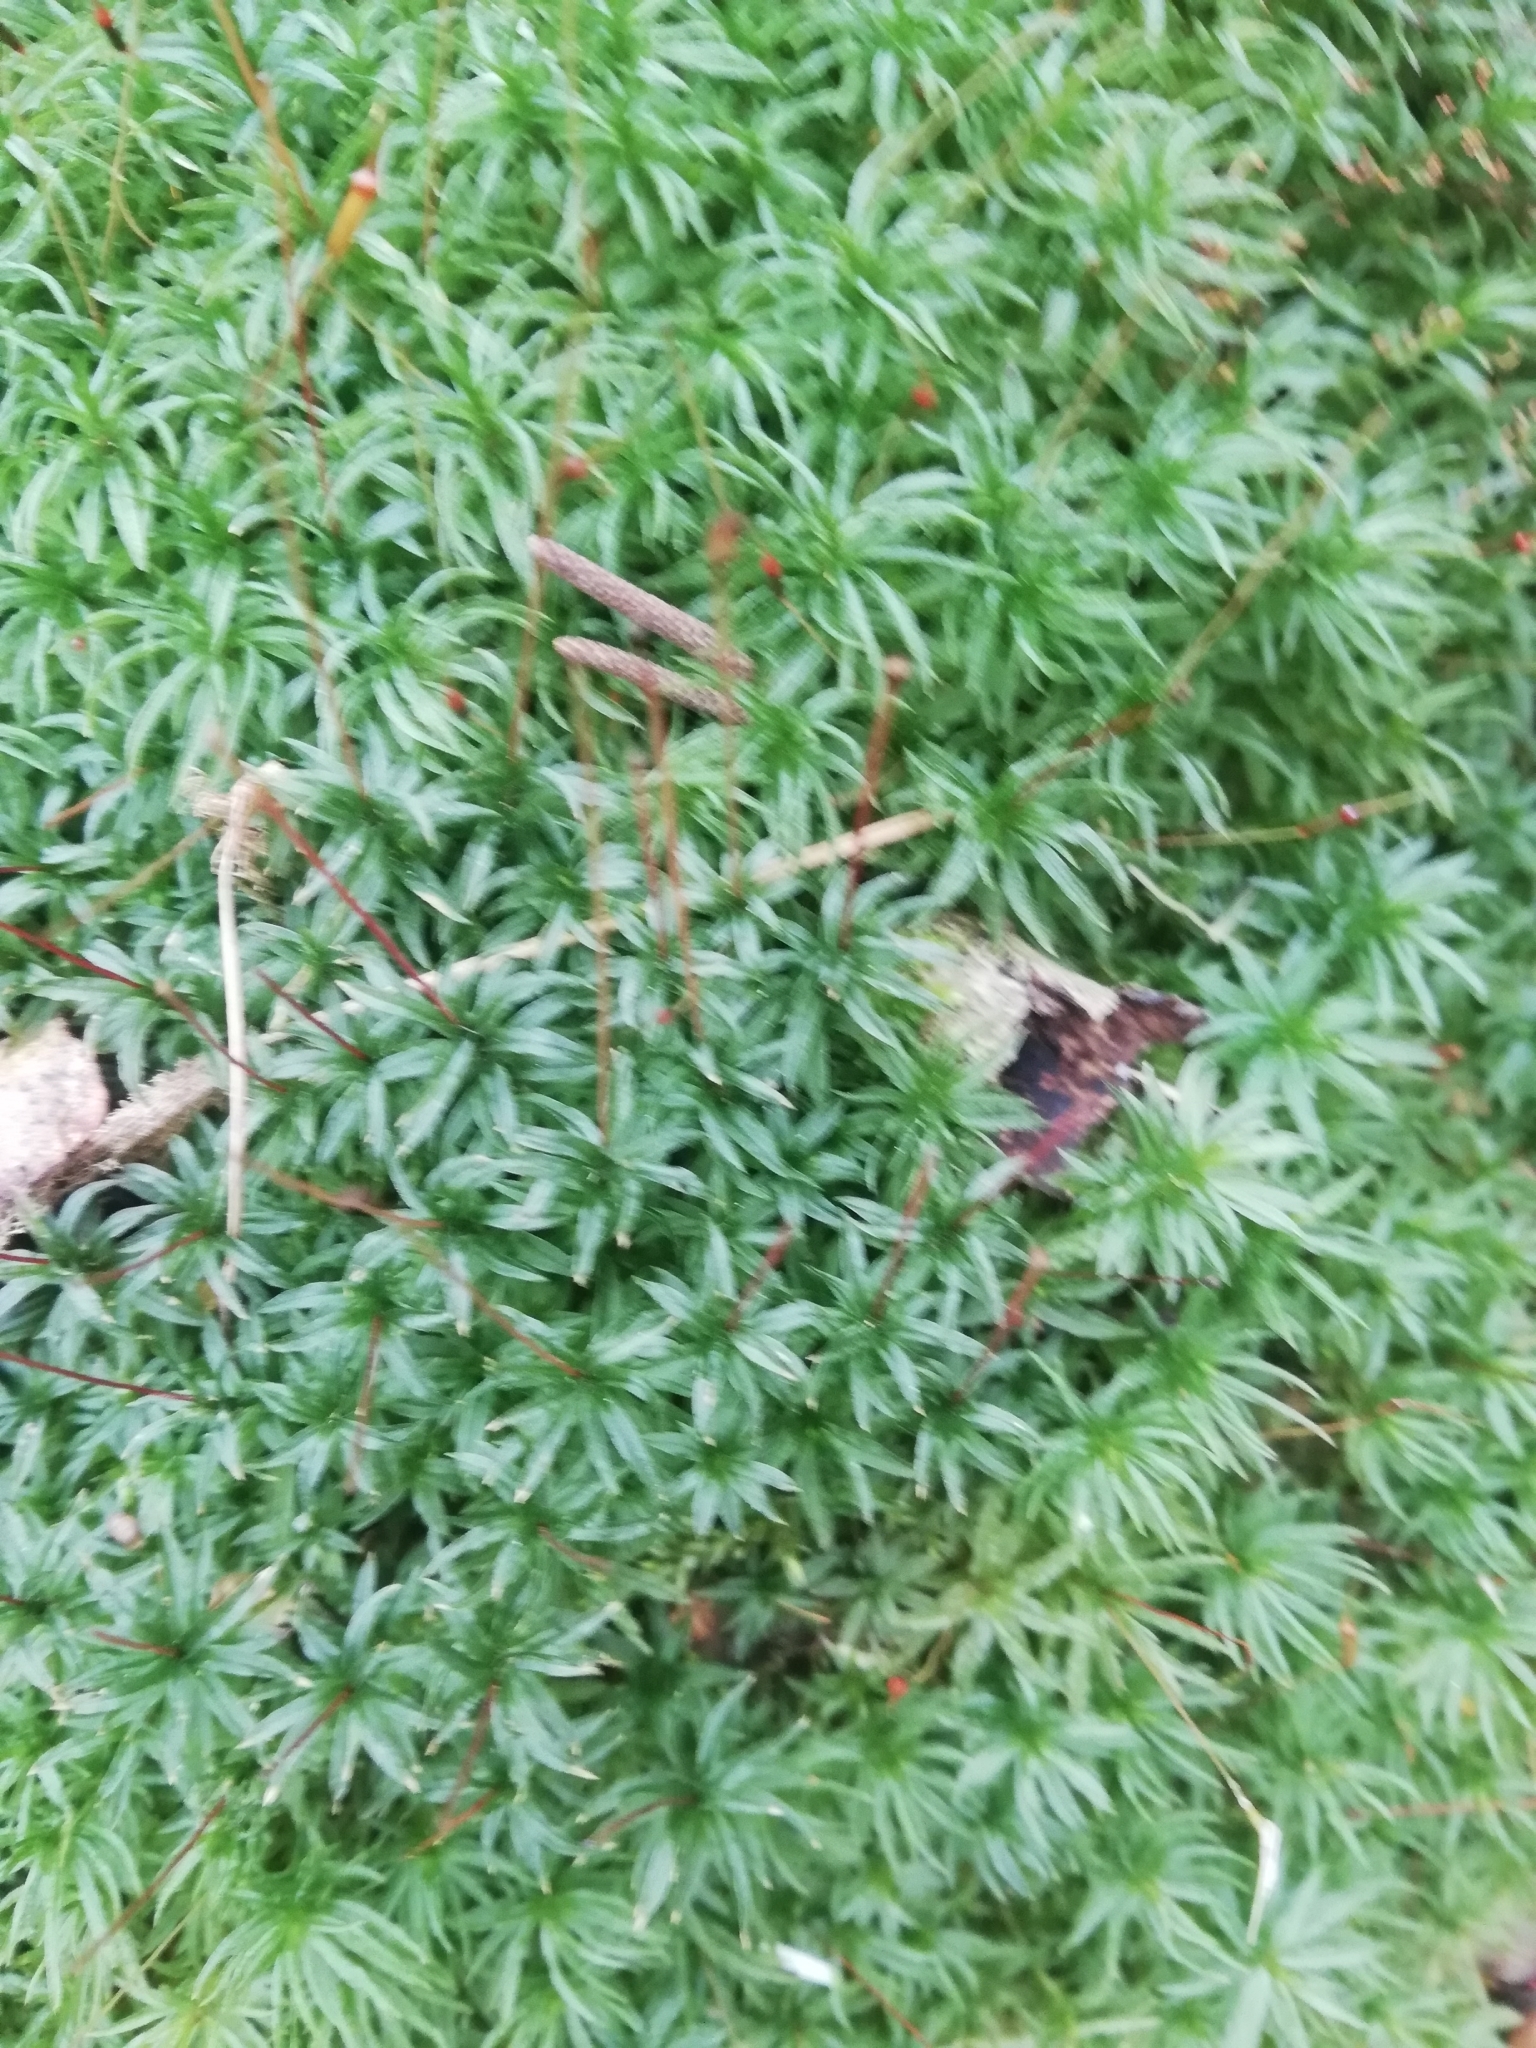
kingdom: Plantae
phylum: Bryophyta
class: Polytrichopsida
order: Polytrichales
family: Polytrichaceae
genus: Atrichum
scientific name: Atrichum undulatum
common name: Common smoothcap
